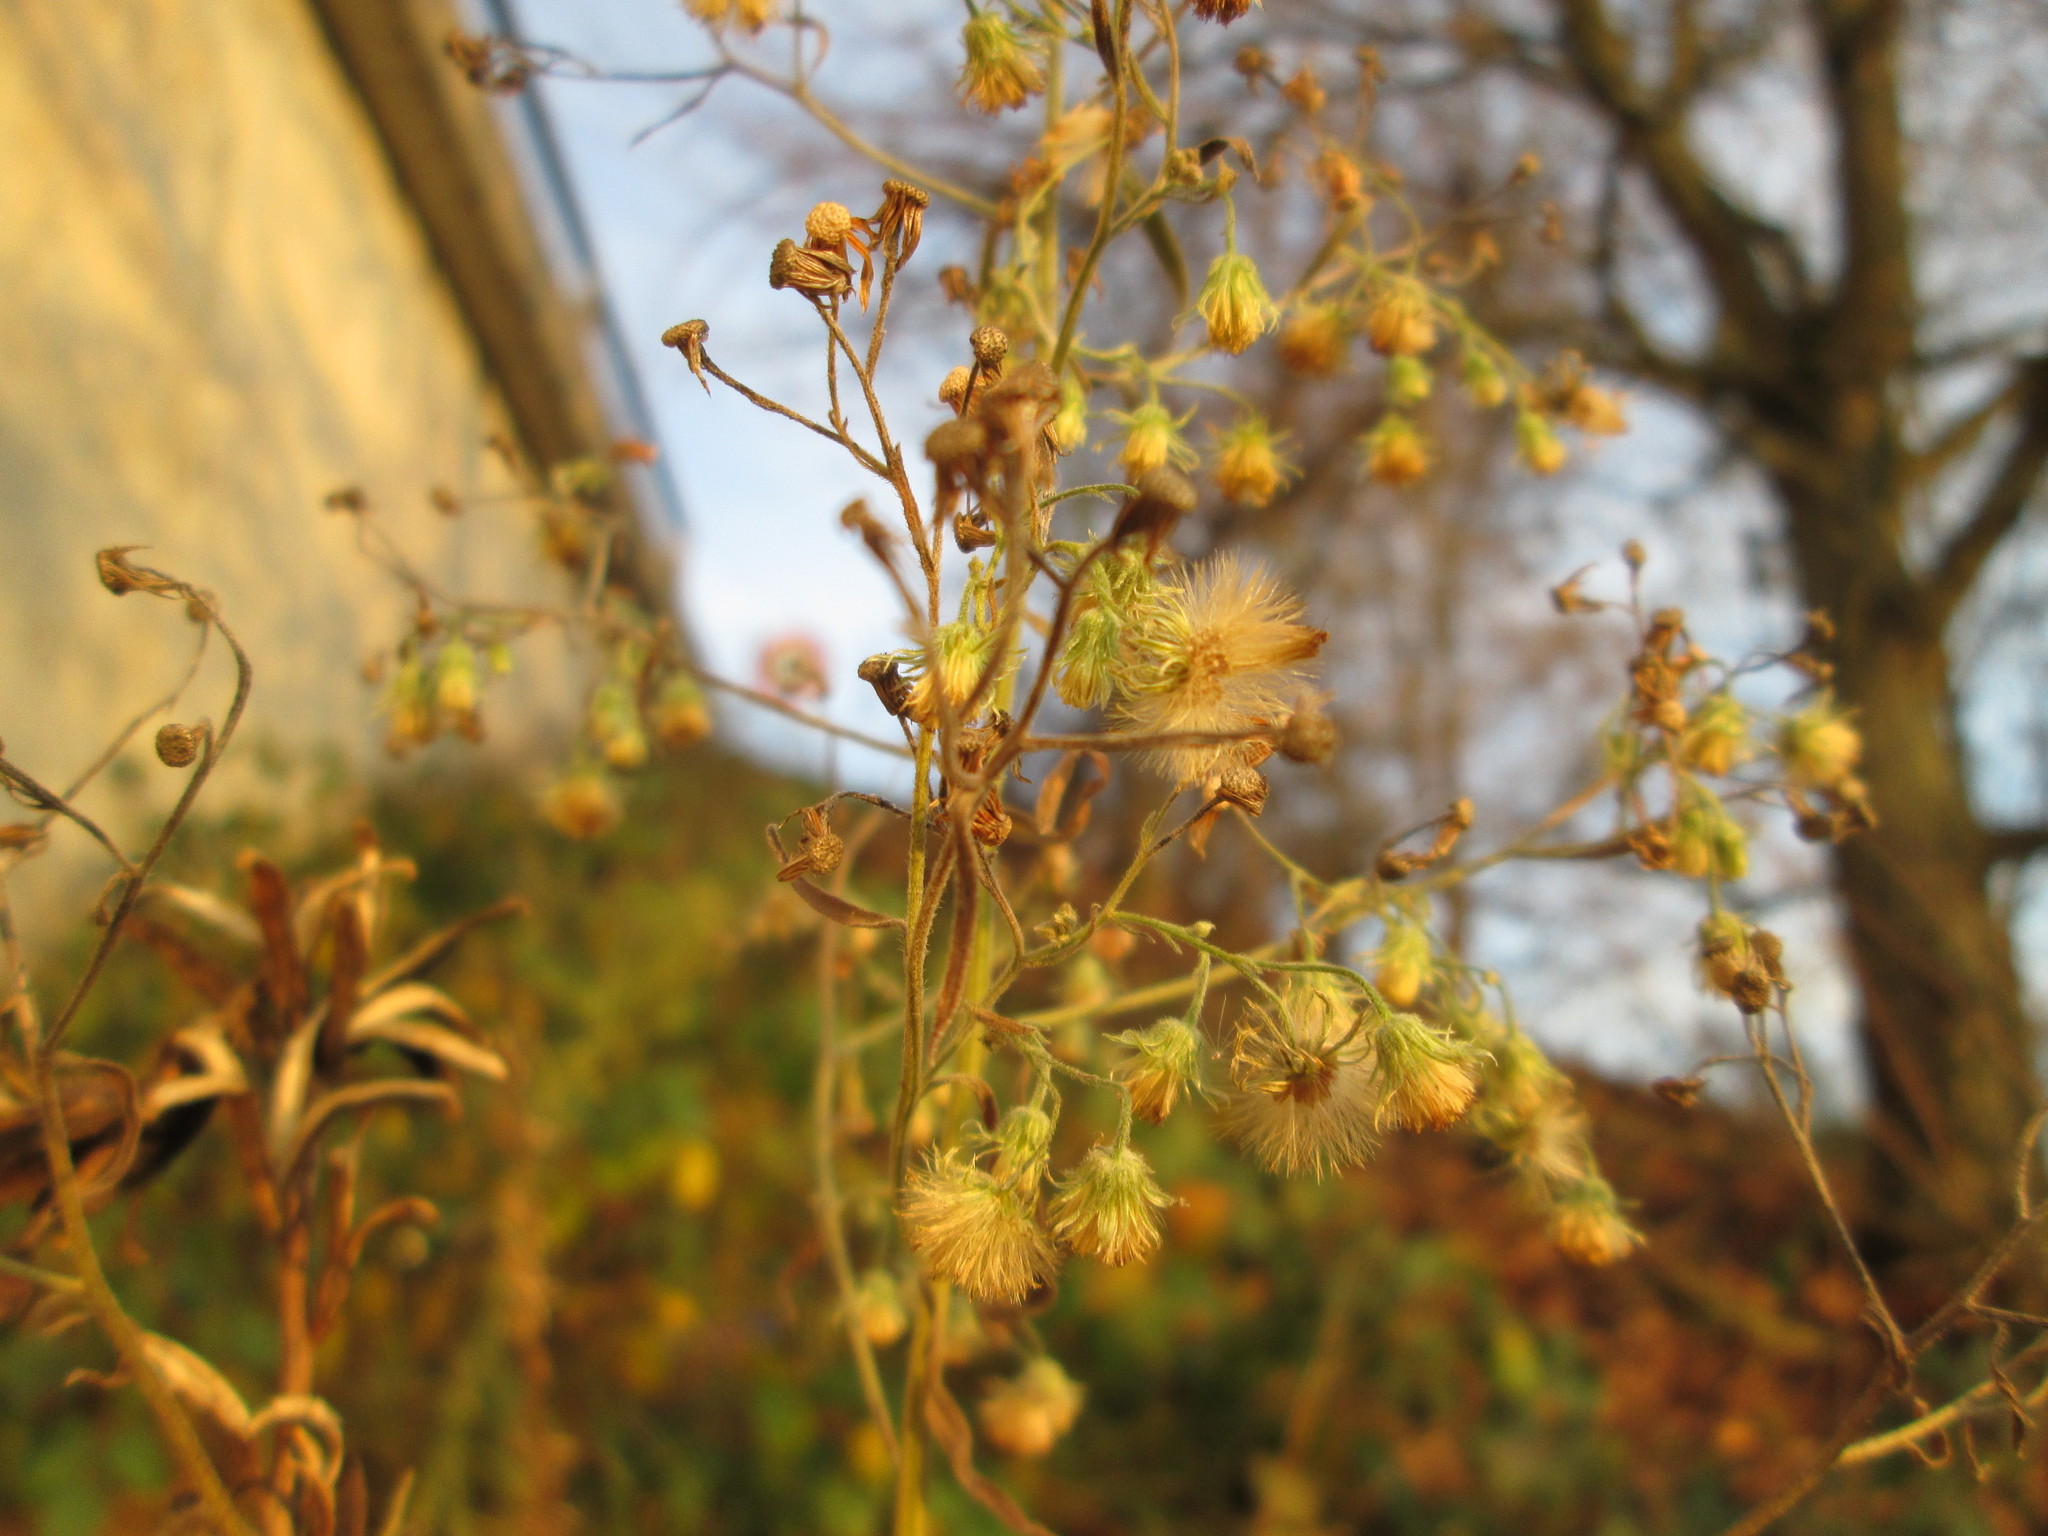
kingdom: Plantae
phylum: Tracheophyta
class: Magnoliopsida
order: Asterales
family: Asteraceae
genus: Erigeron
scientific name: Erigeron canadensis
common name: Canadian fleabane
